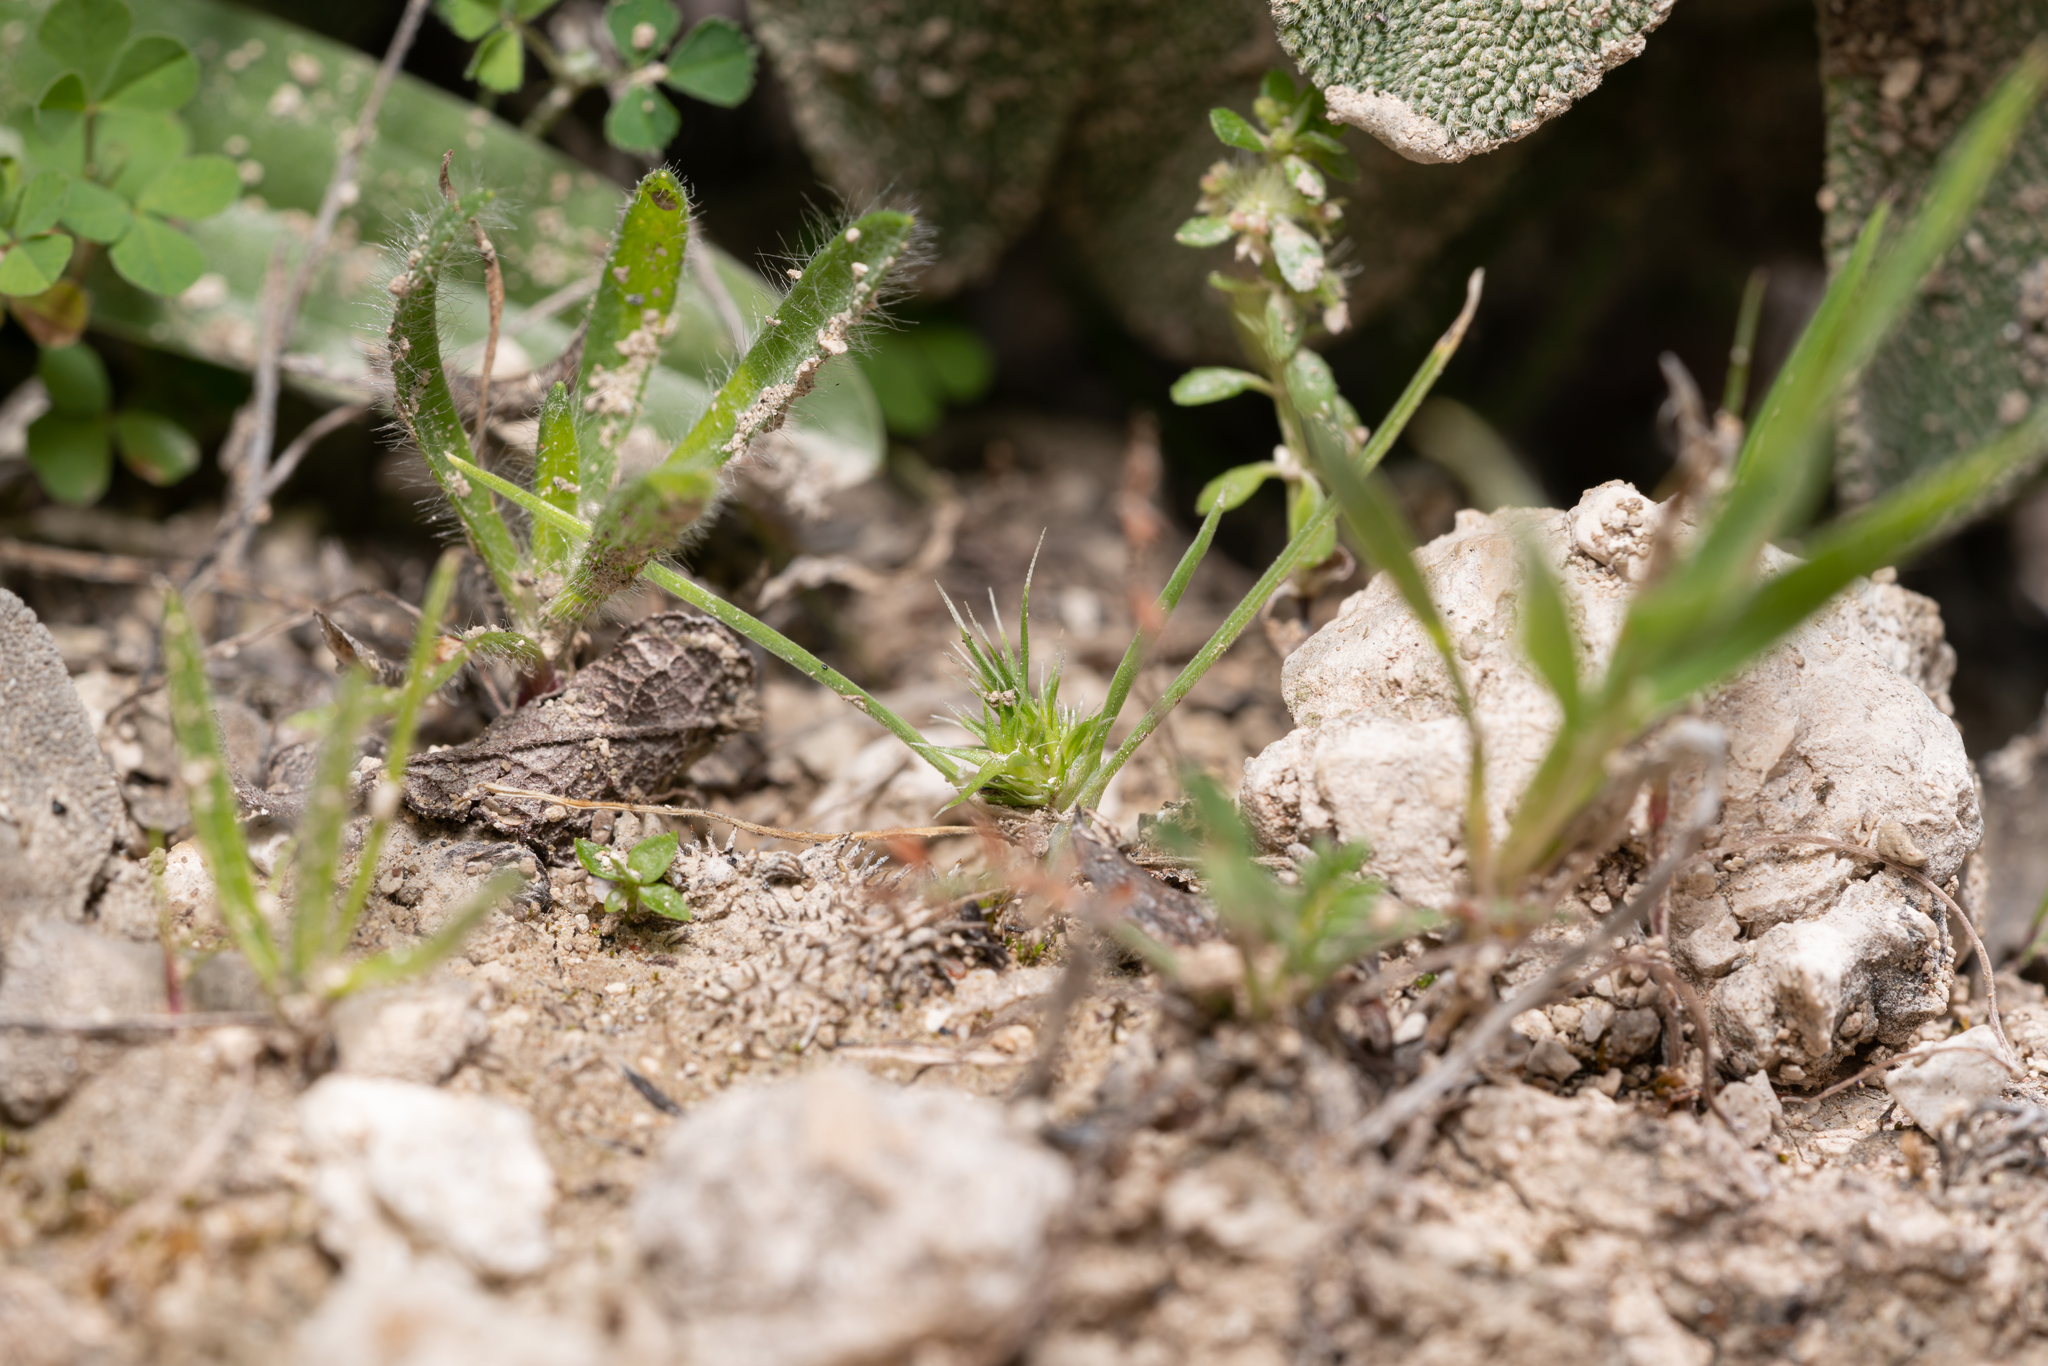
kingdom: Plantae
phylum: Tracheophyta
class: Liliopsida
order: Poales
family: Poaceae
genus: Echinaria
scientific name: Echinaria capitata
